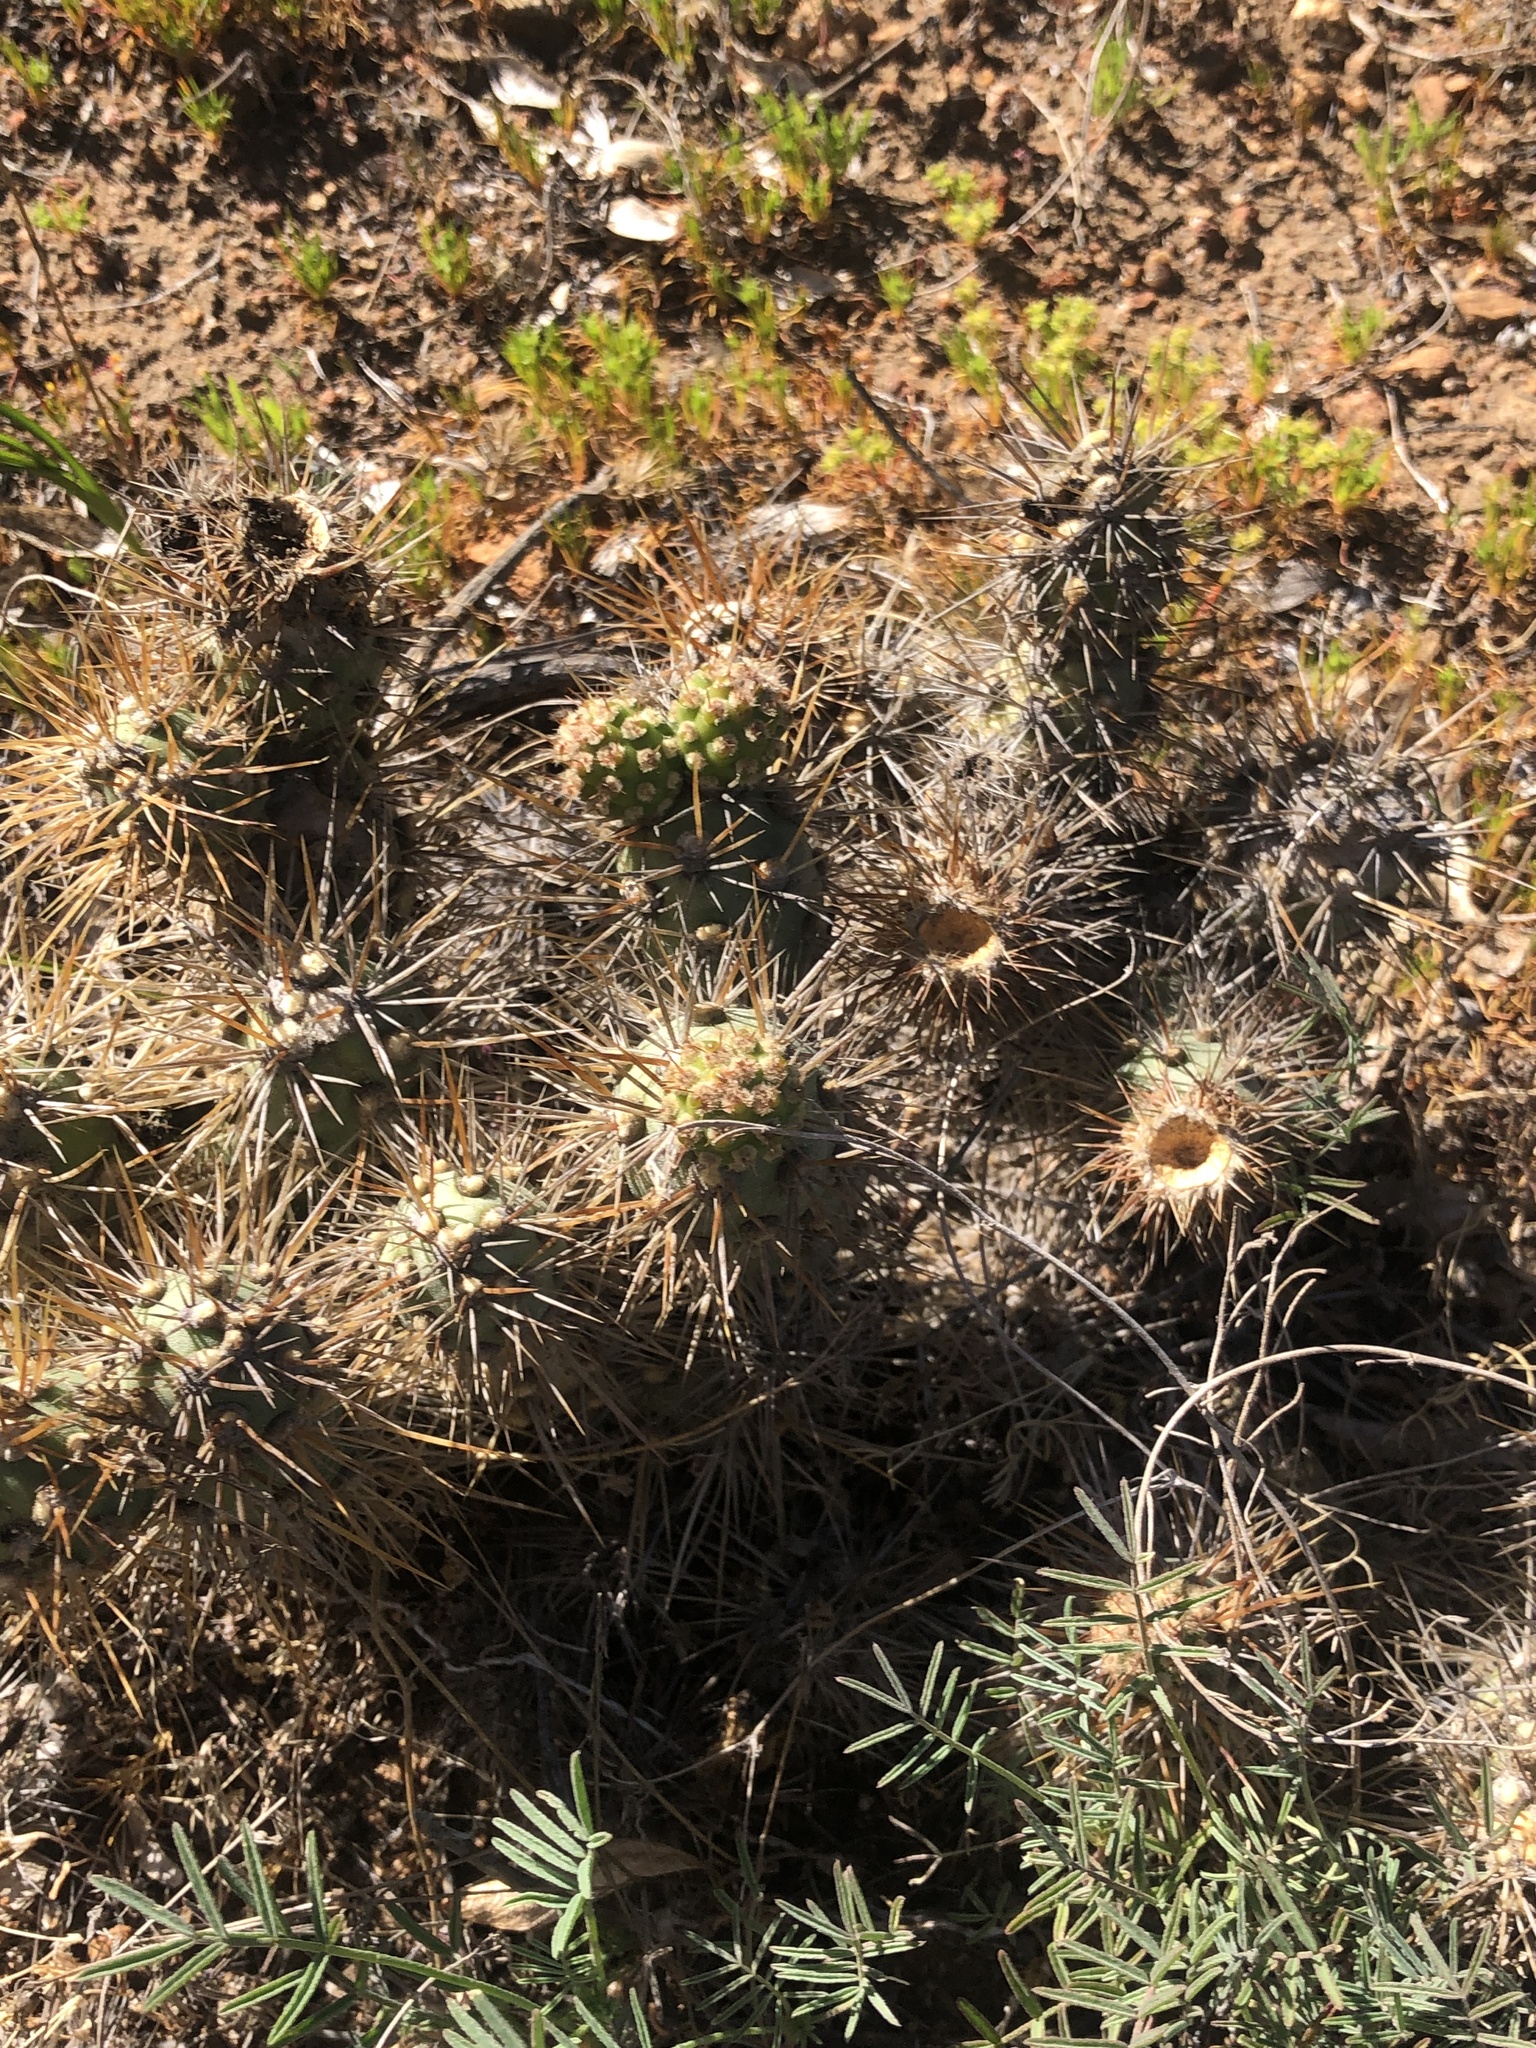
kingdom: Plantae
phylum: Tracheophyta
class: Magnoliopsida
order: Caryophyllales
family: Cactaceae
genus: Cumulopuntia
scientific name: Cumulopuntia leucophaea
